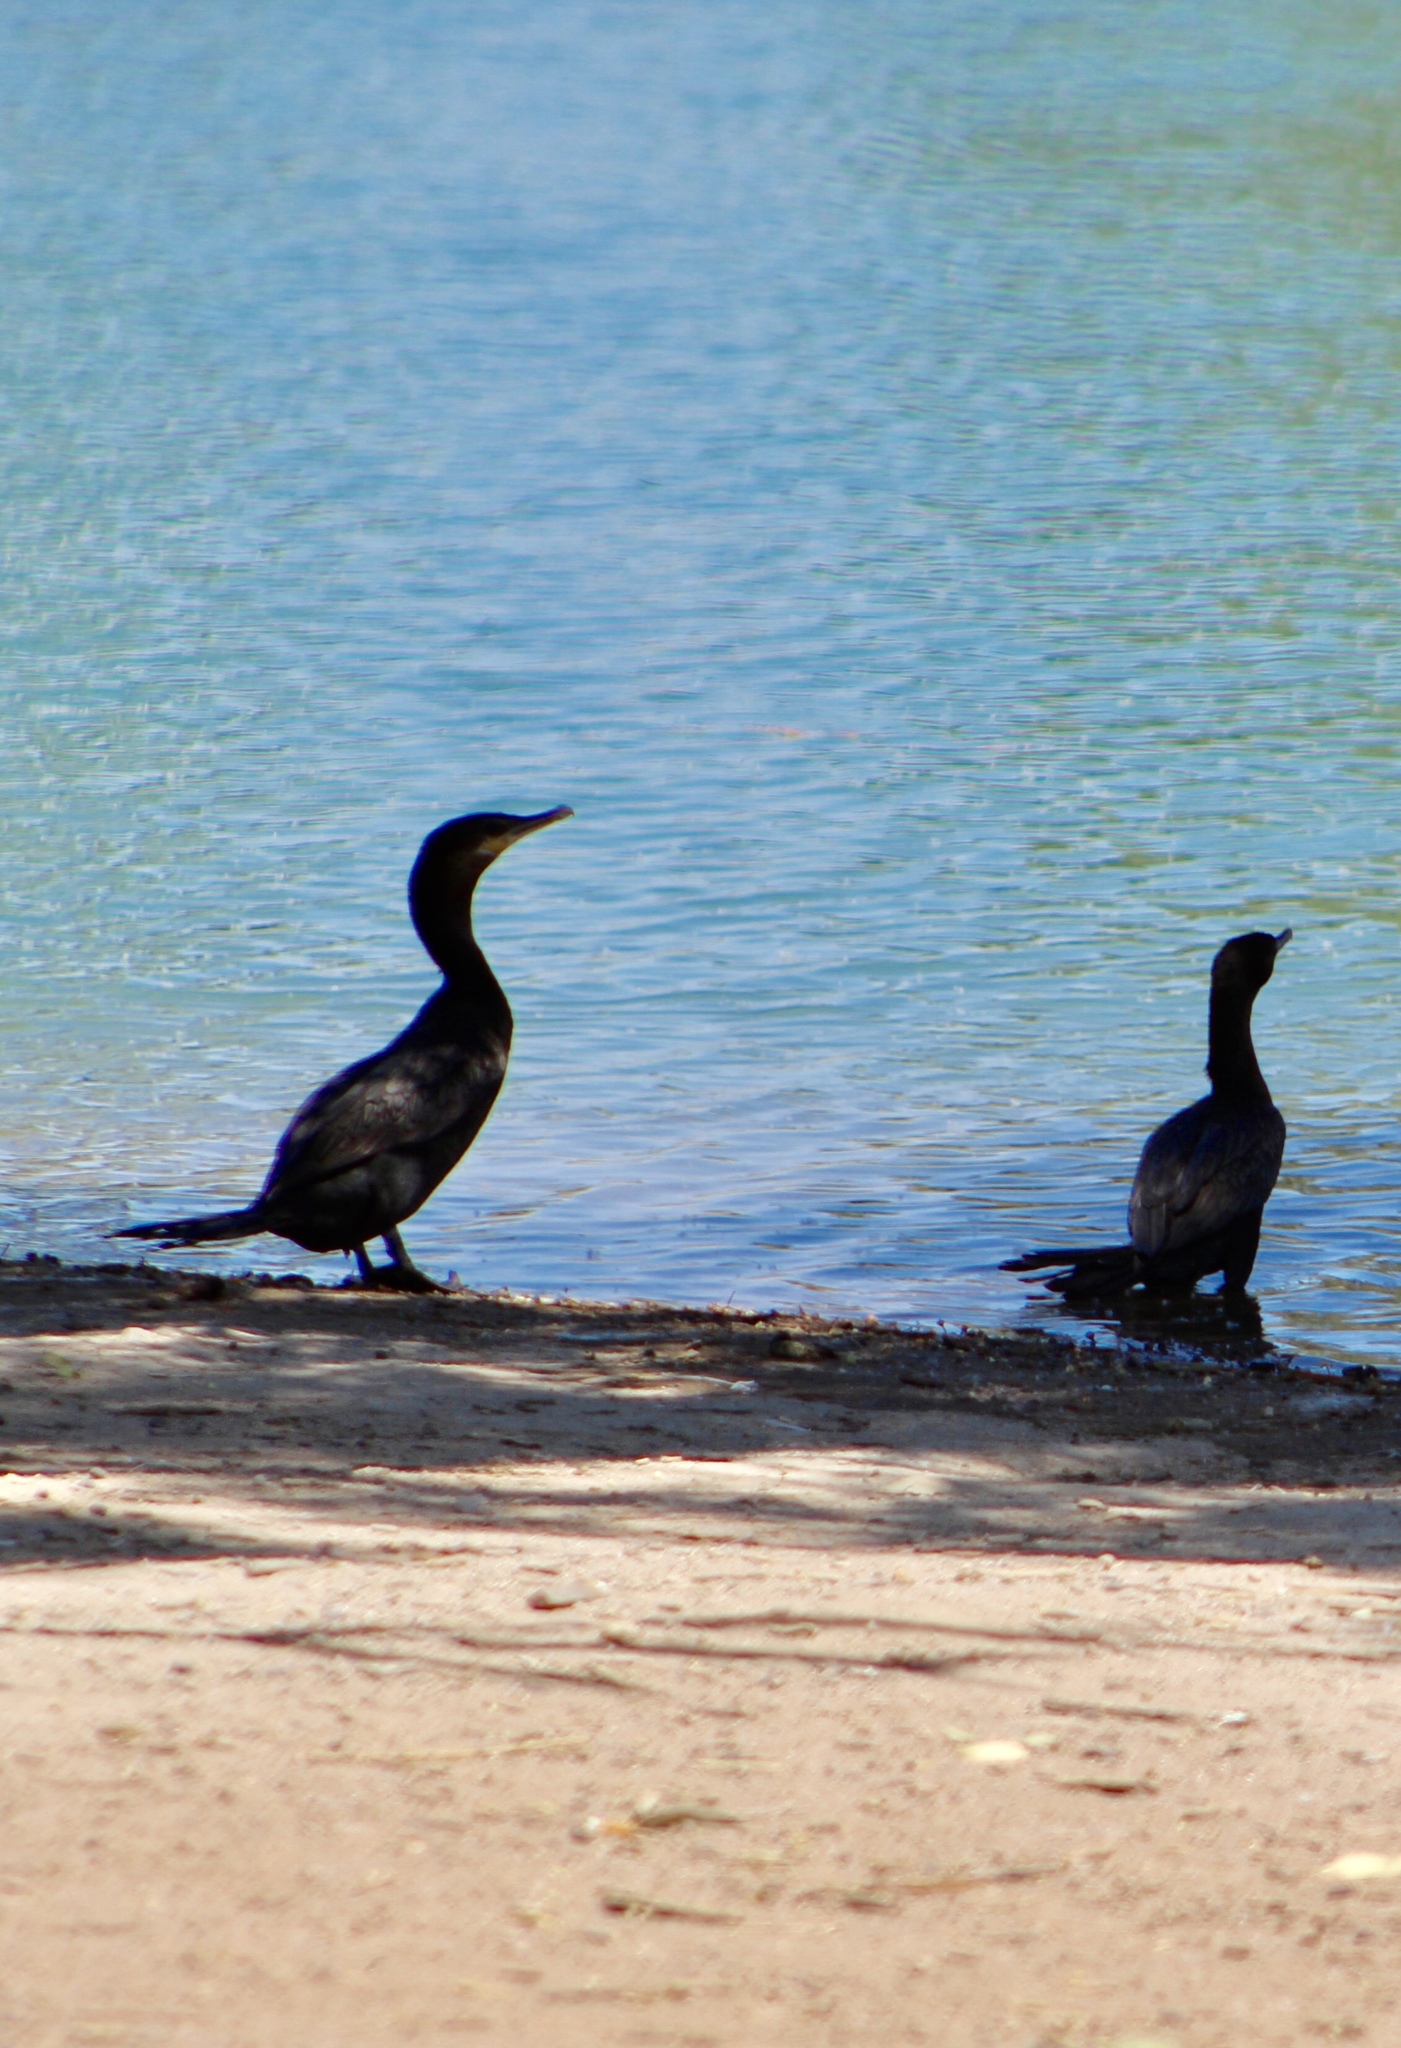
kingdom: Animalia
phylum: Chordata
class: Aves
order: Suliformes
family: Phalacrocoracidae
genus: Phalacrocorax
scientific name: Phalacrocorax brasilianus
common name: Neotropic cormorant
